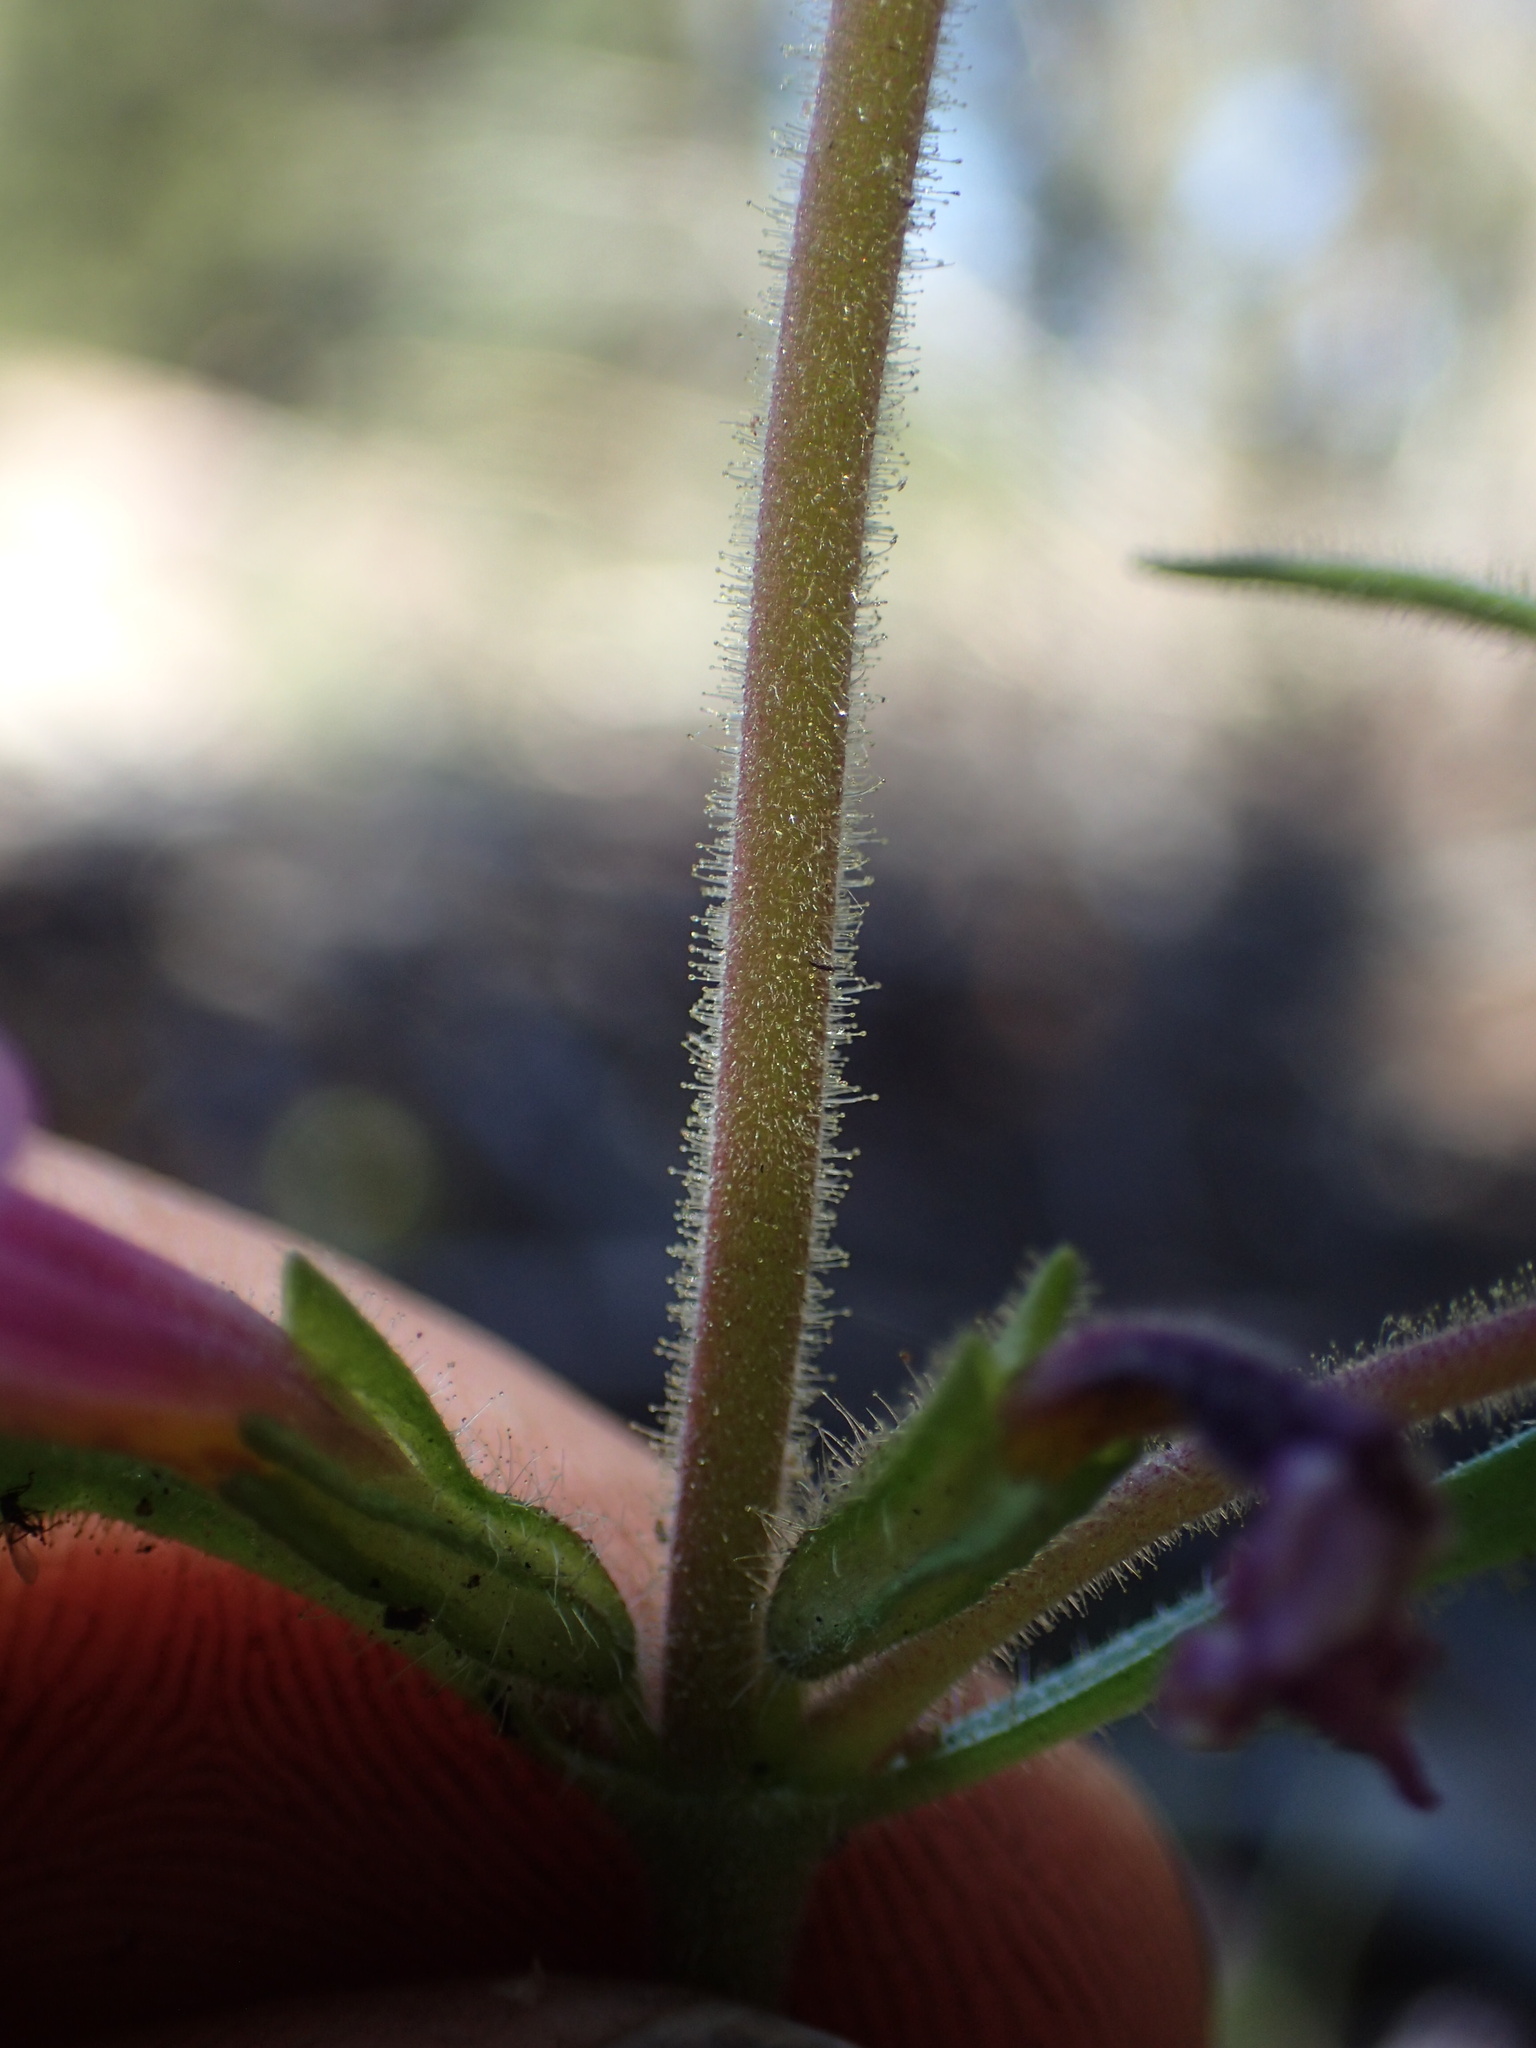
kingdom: Plantae
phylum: Tracheophyta
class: Magnoliopsida
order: Lamiales
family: Phrymaceae
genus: Diplacus
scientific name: Diplacus torreyi
